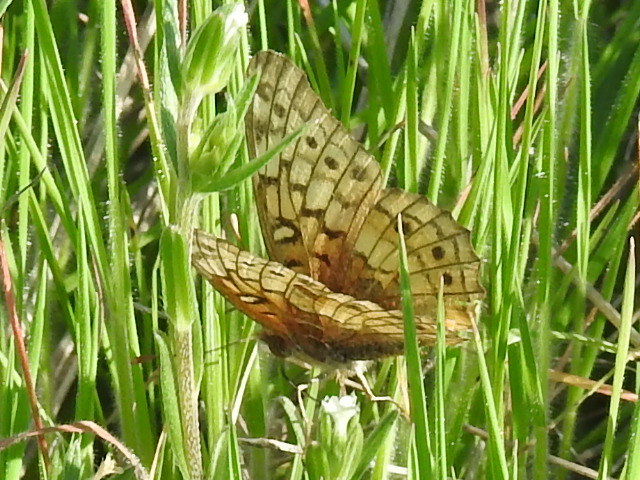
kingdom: Animalia
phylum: Arthropoda
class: Insecta
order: Lepidoptera
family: Nymphalidae
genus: Euptoieta
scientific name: Euptoieta claudia
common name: Variegated fritillary
